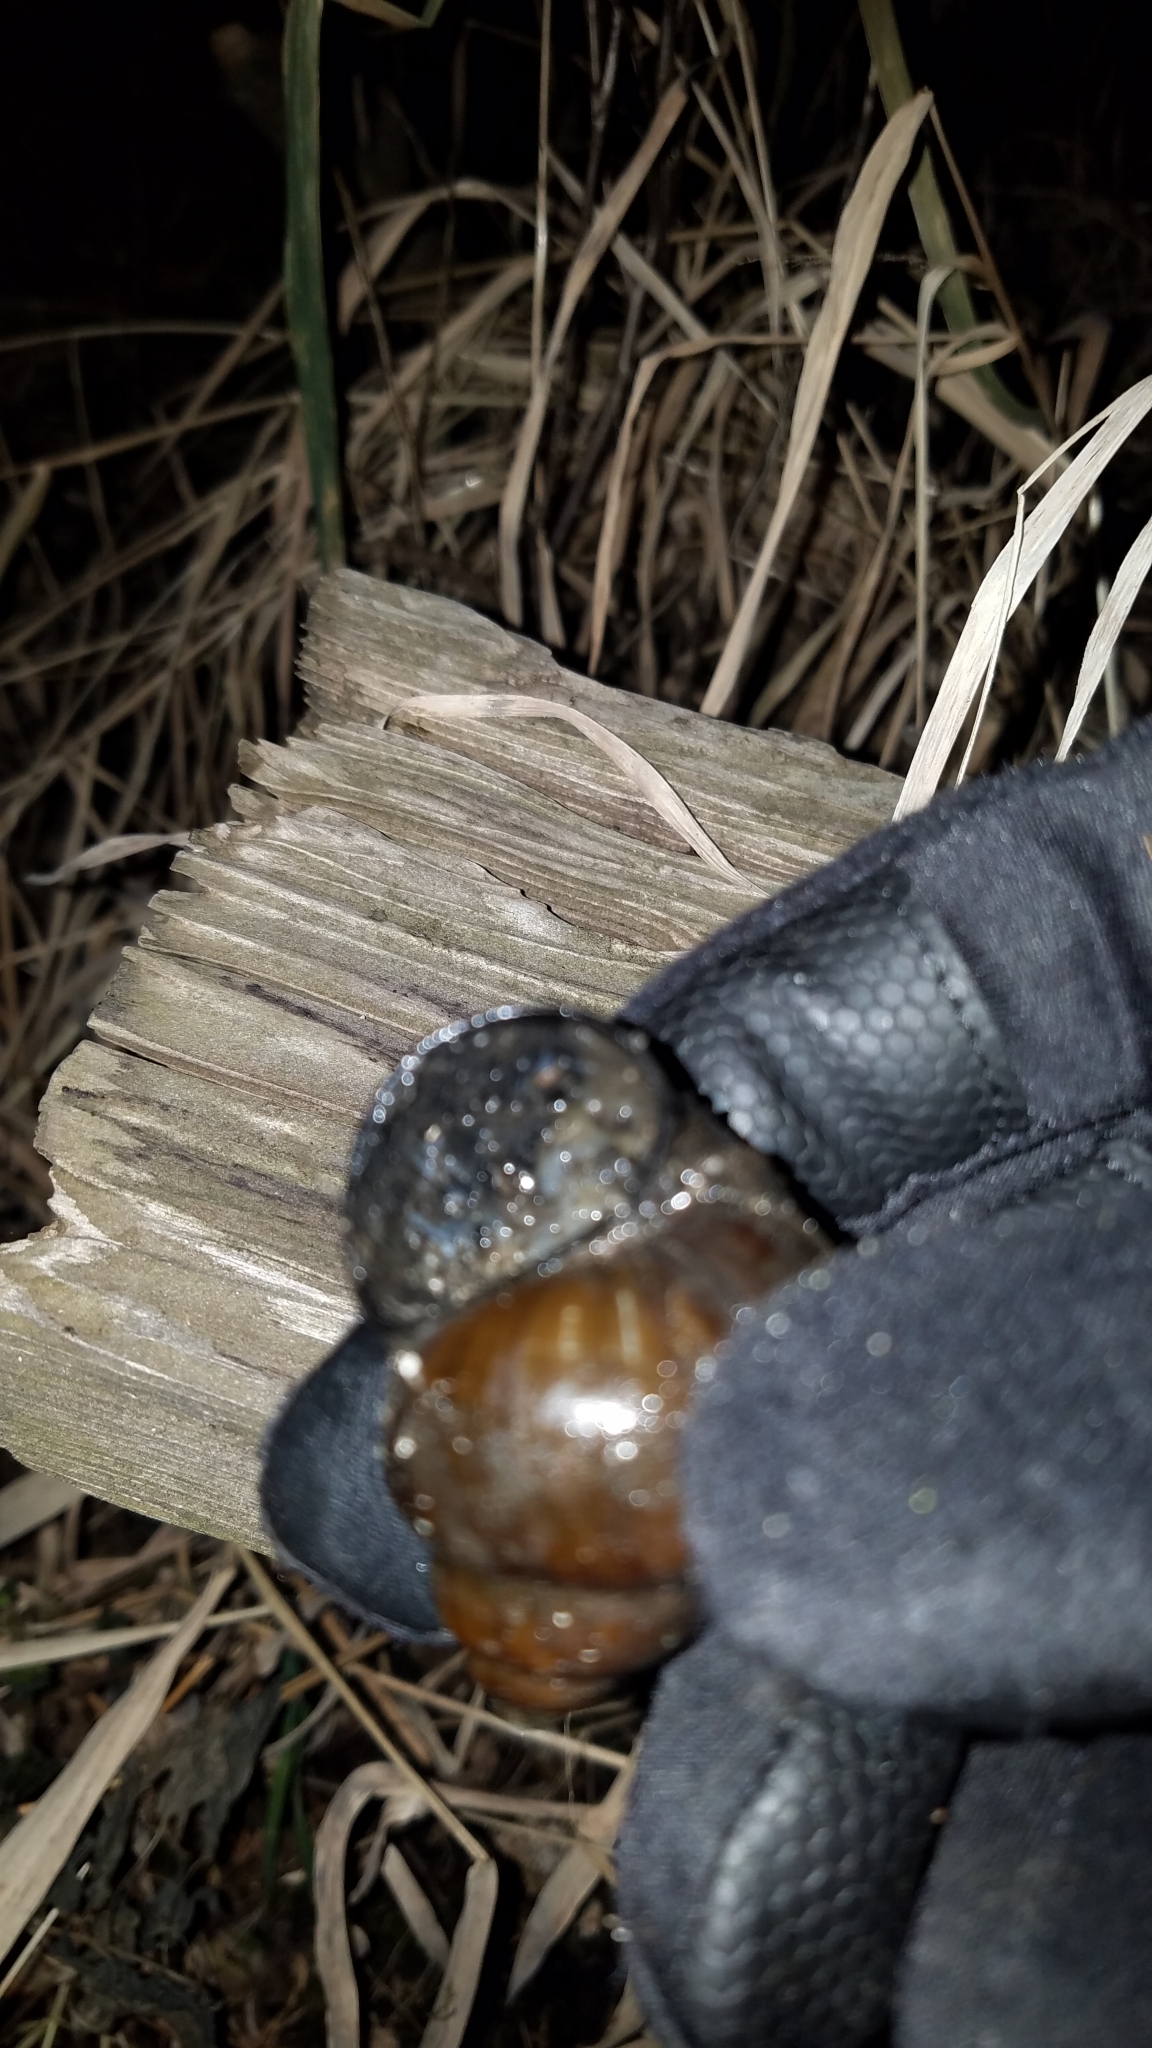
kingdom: Animalia
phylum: Mollusca
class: Gastropoda
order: Architaenioglossa
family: Viviparidae
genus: Cipangopaludina
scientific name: Cipangopaludina chinensis
